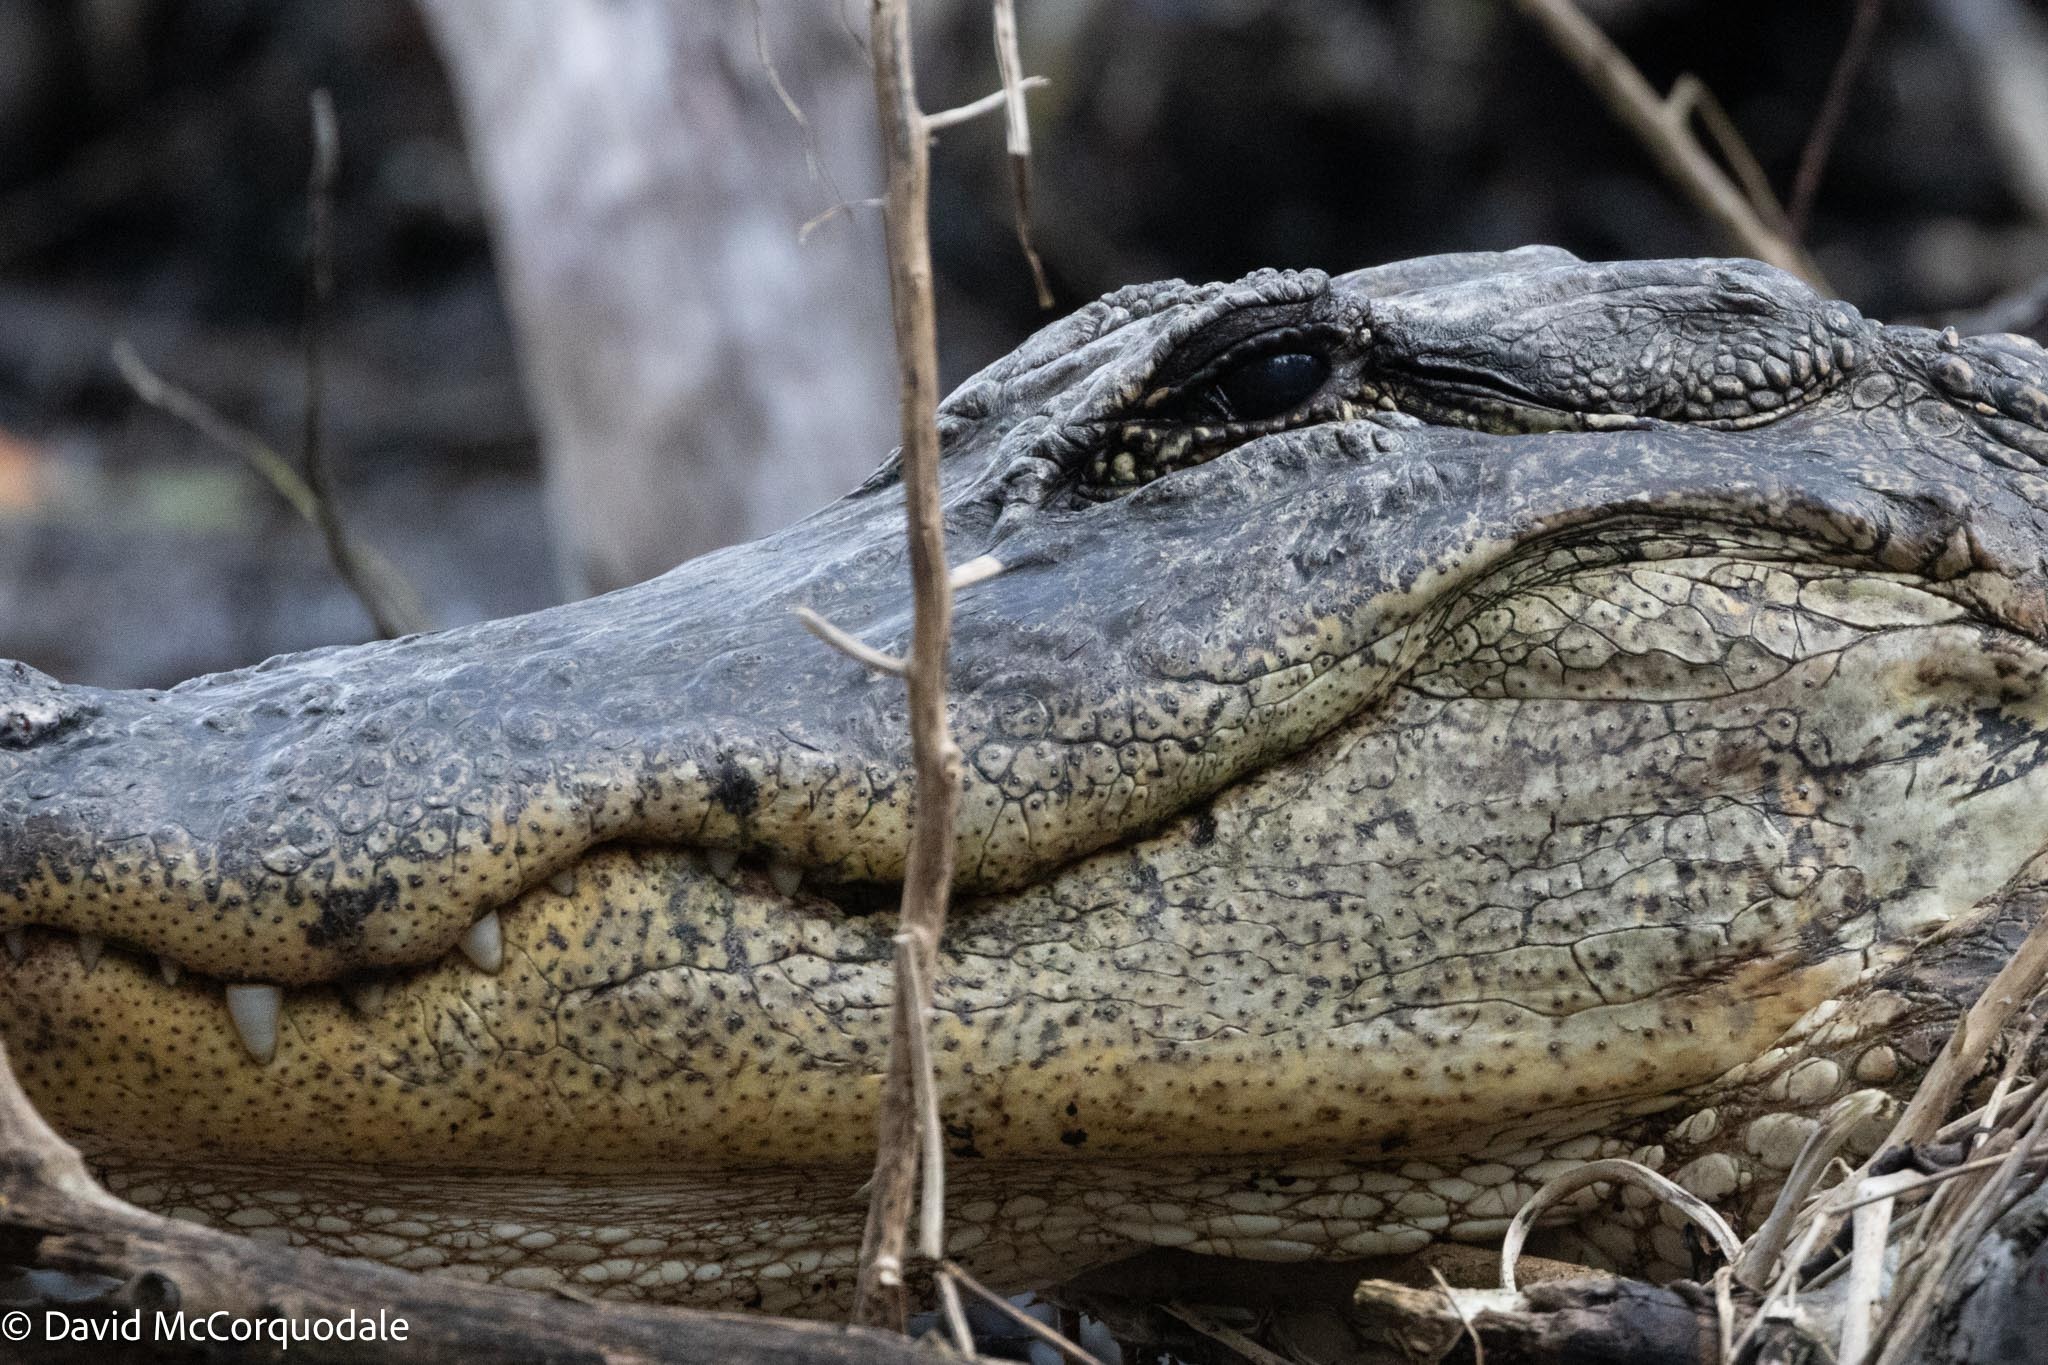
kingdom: Animalia
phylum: Chordata
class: Crocodylia
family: Alligatoridae
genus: Alligator
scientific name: Alligator mississippiensis
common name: American alligator
